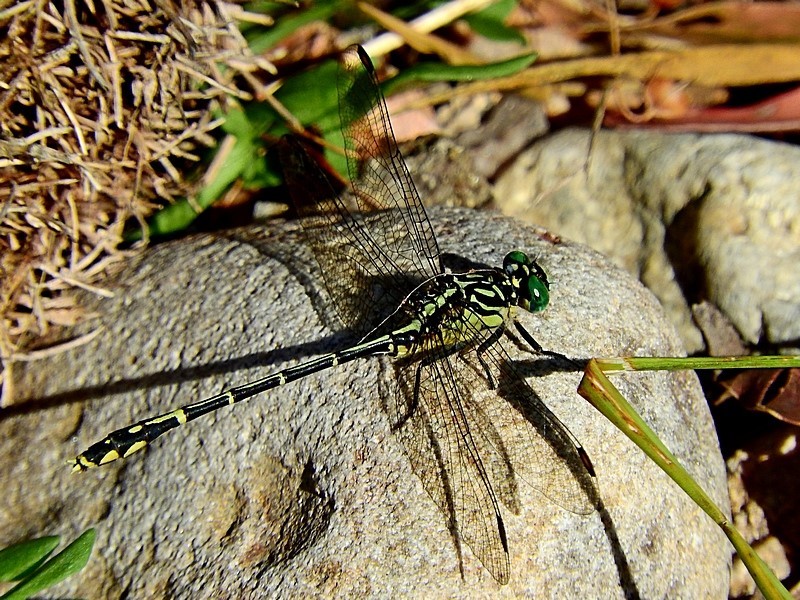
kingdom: Animalia
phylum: Arthropoda
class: Insecta
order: Odonata
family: Gomphidae
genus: Austrogomphus
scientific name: Austrogomphus ochraceus
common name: Jade hunter
